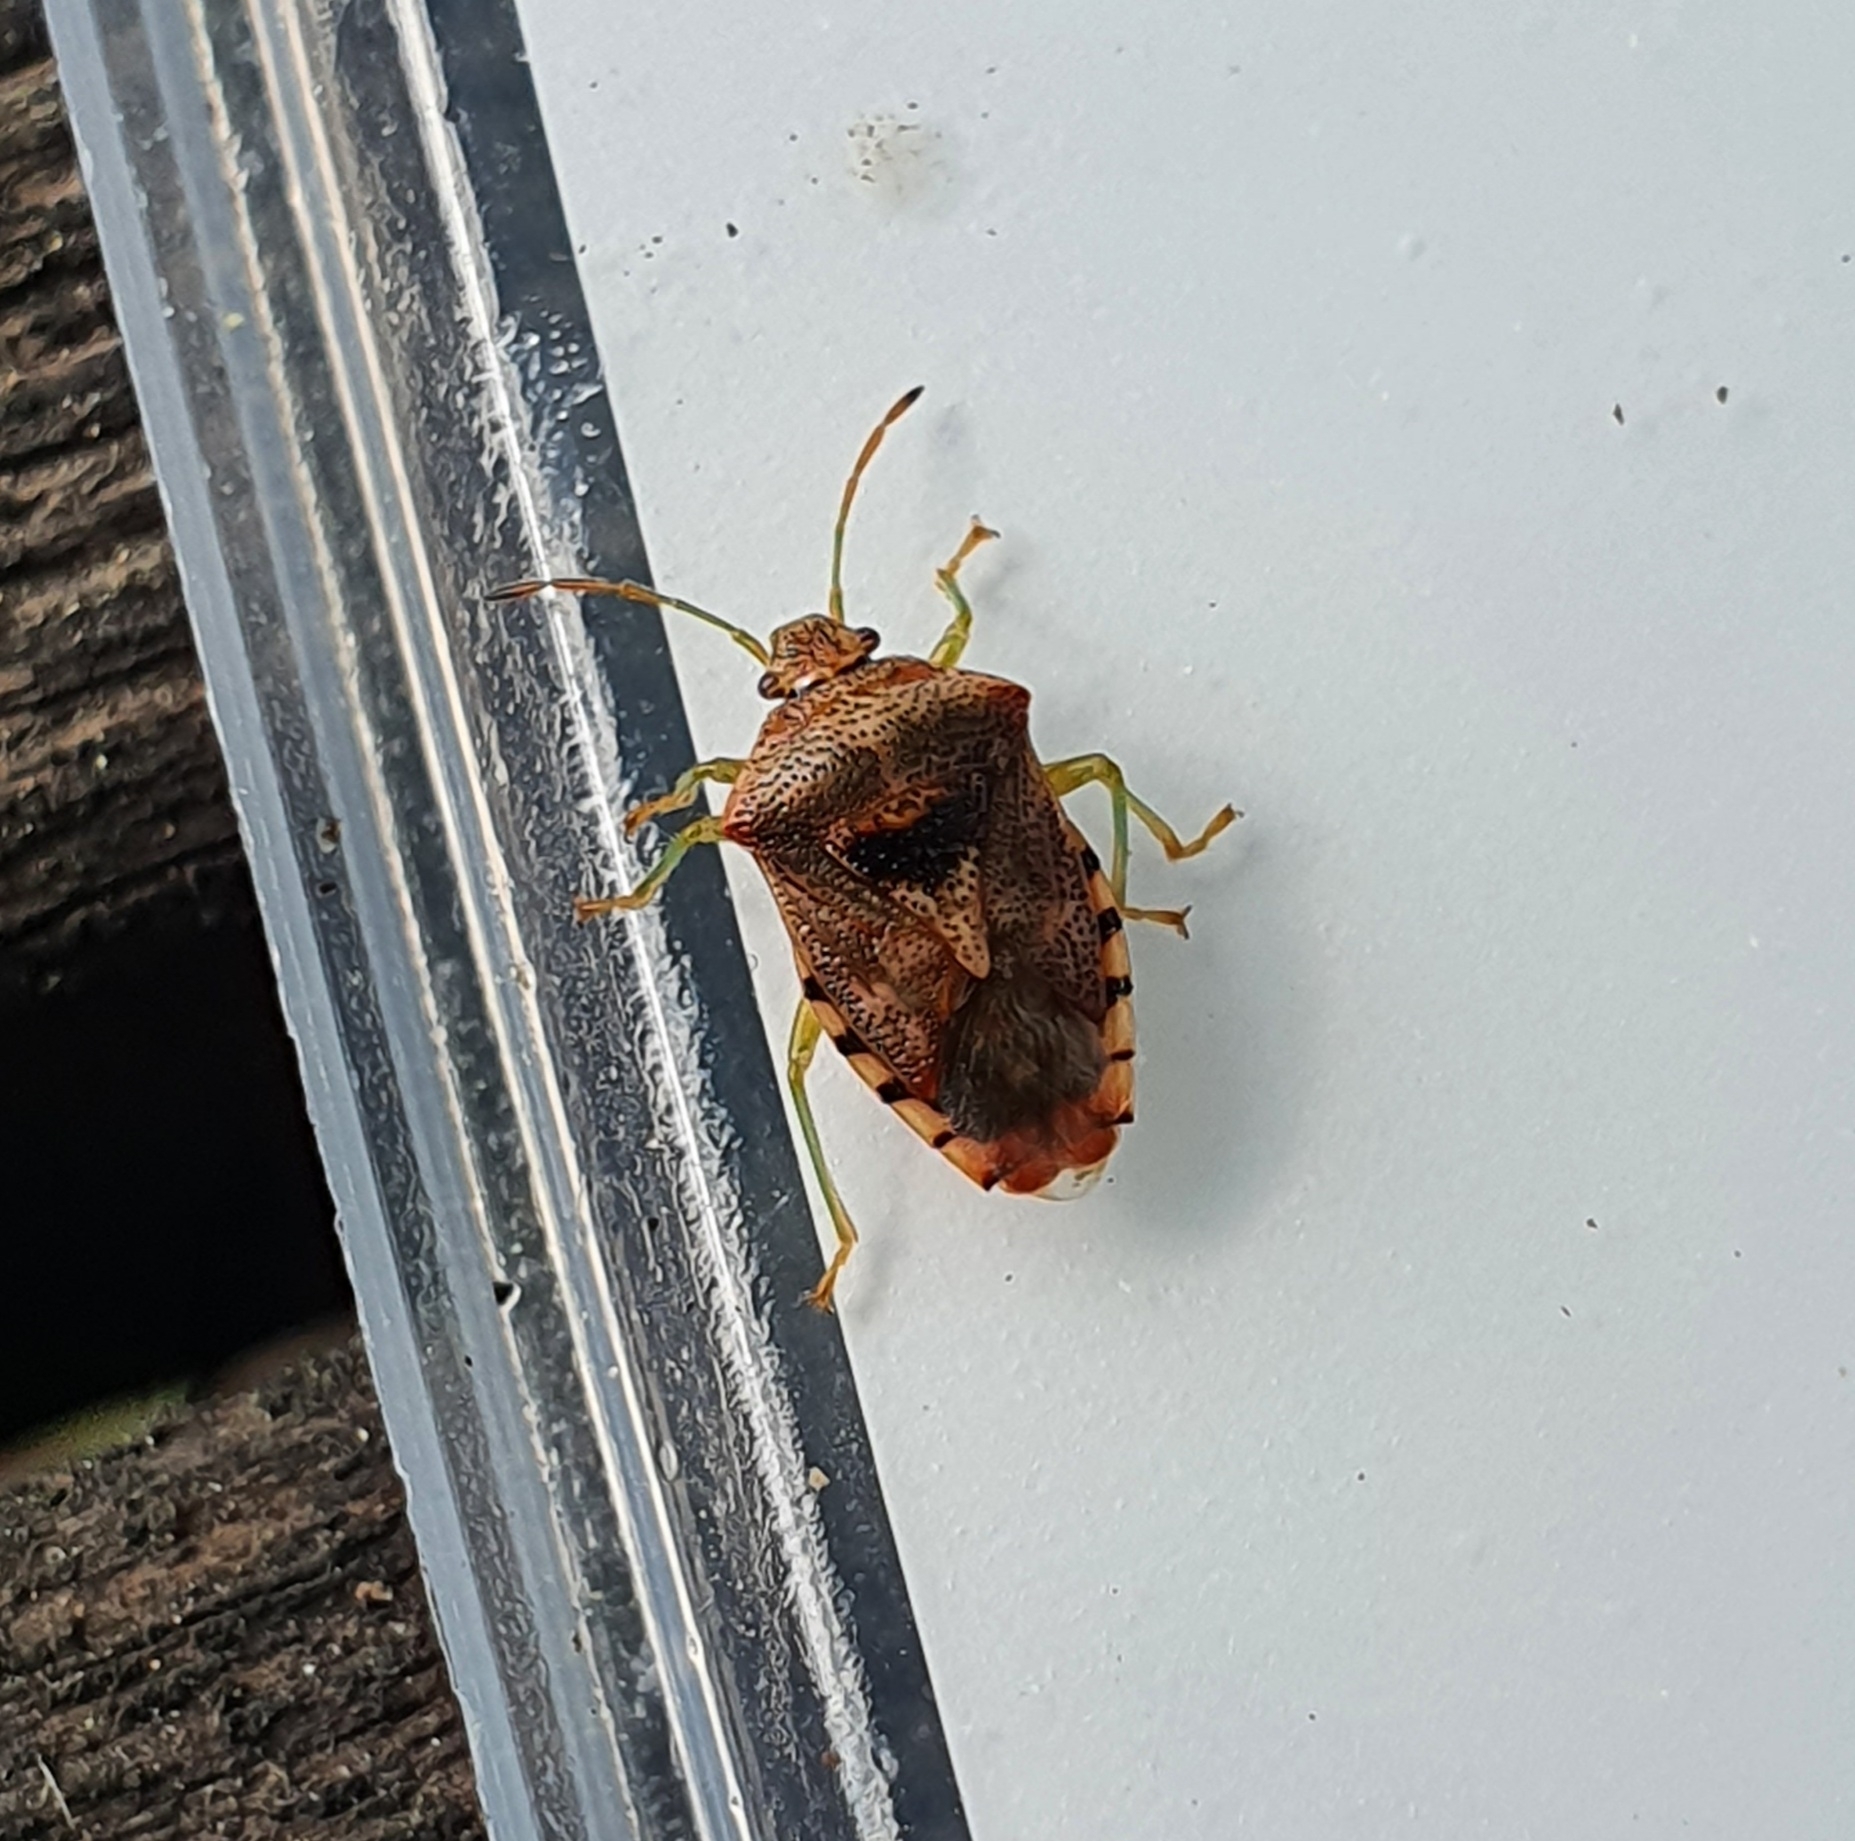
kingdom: Animalia
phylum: Arthropoda
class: Insecta
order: Hemiptera
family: Acanthosomatidae
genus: Elasmucha
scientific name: Elasmucha grisea
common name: Parent bug
